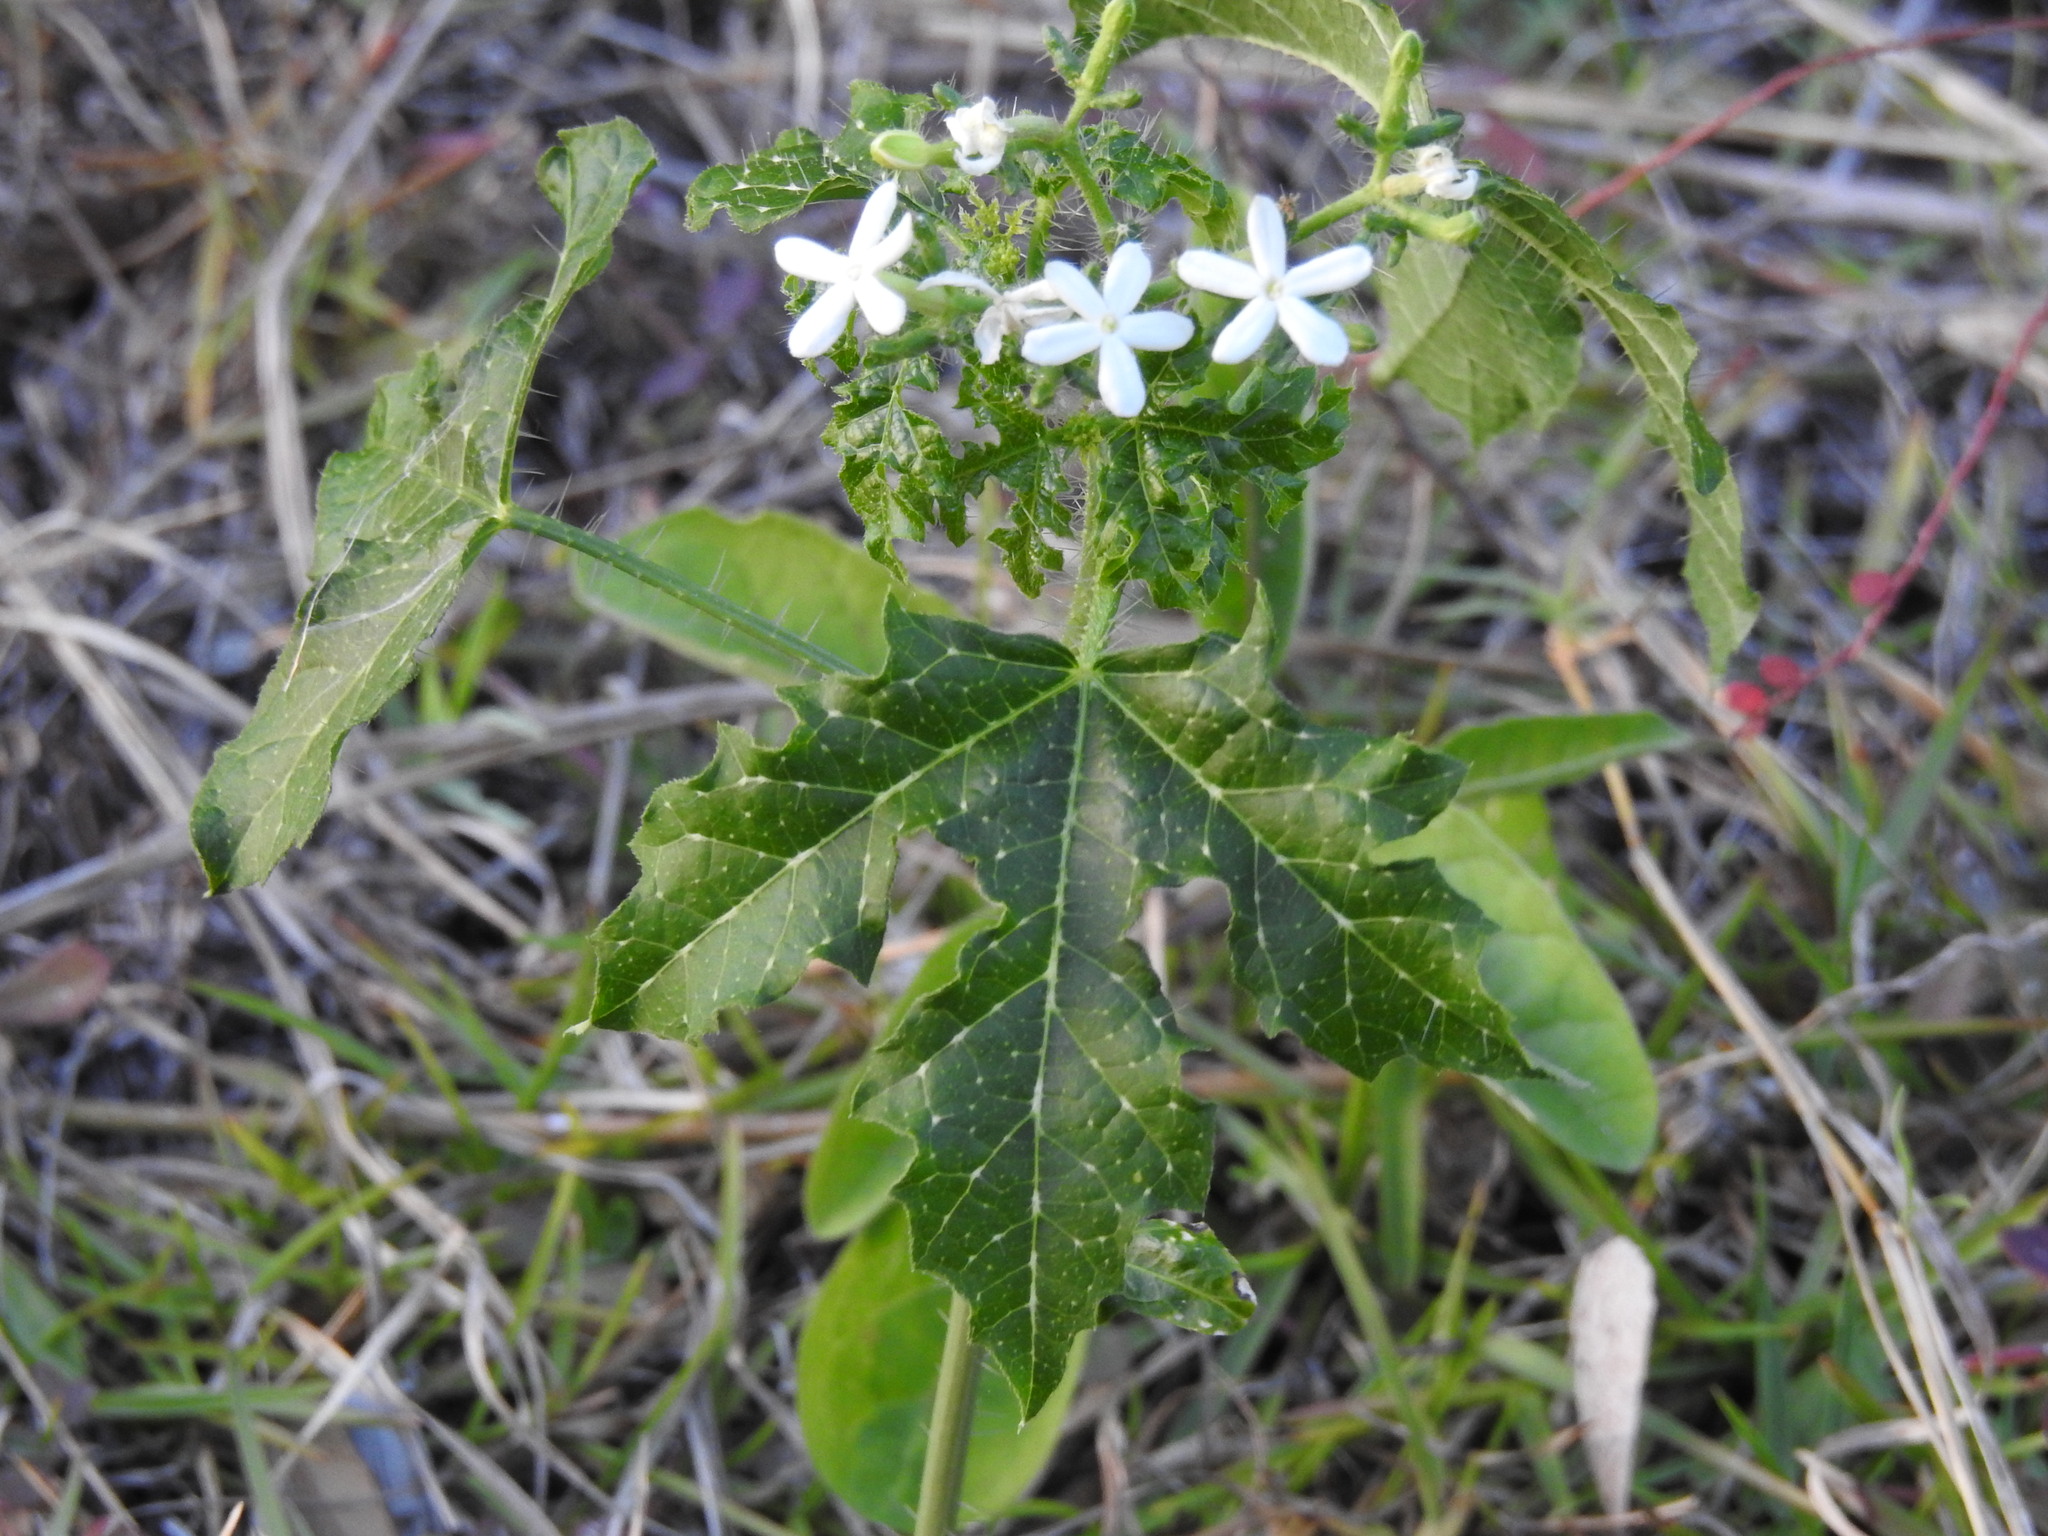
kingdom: Plantae
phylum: Tracheophyta
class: Magnoliopsida
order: Malpighiales
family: Euphorbiaceae
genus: Cnidoscolus
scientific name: Cnidoscolus stimulosus
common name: Bull-nettle
